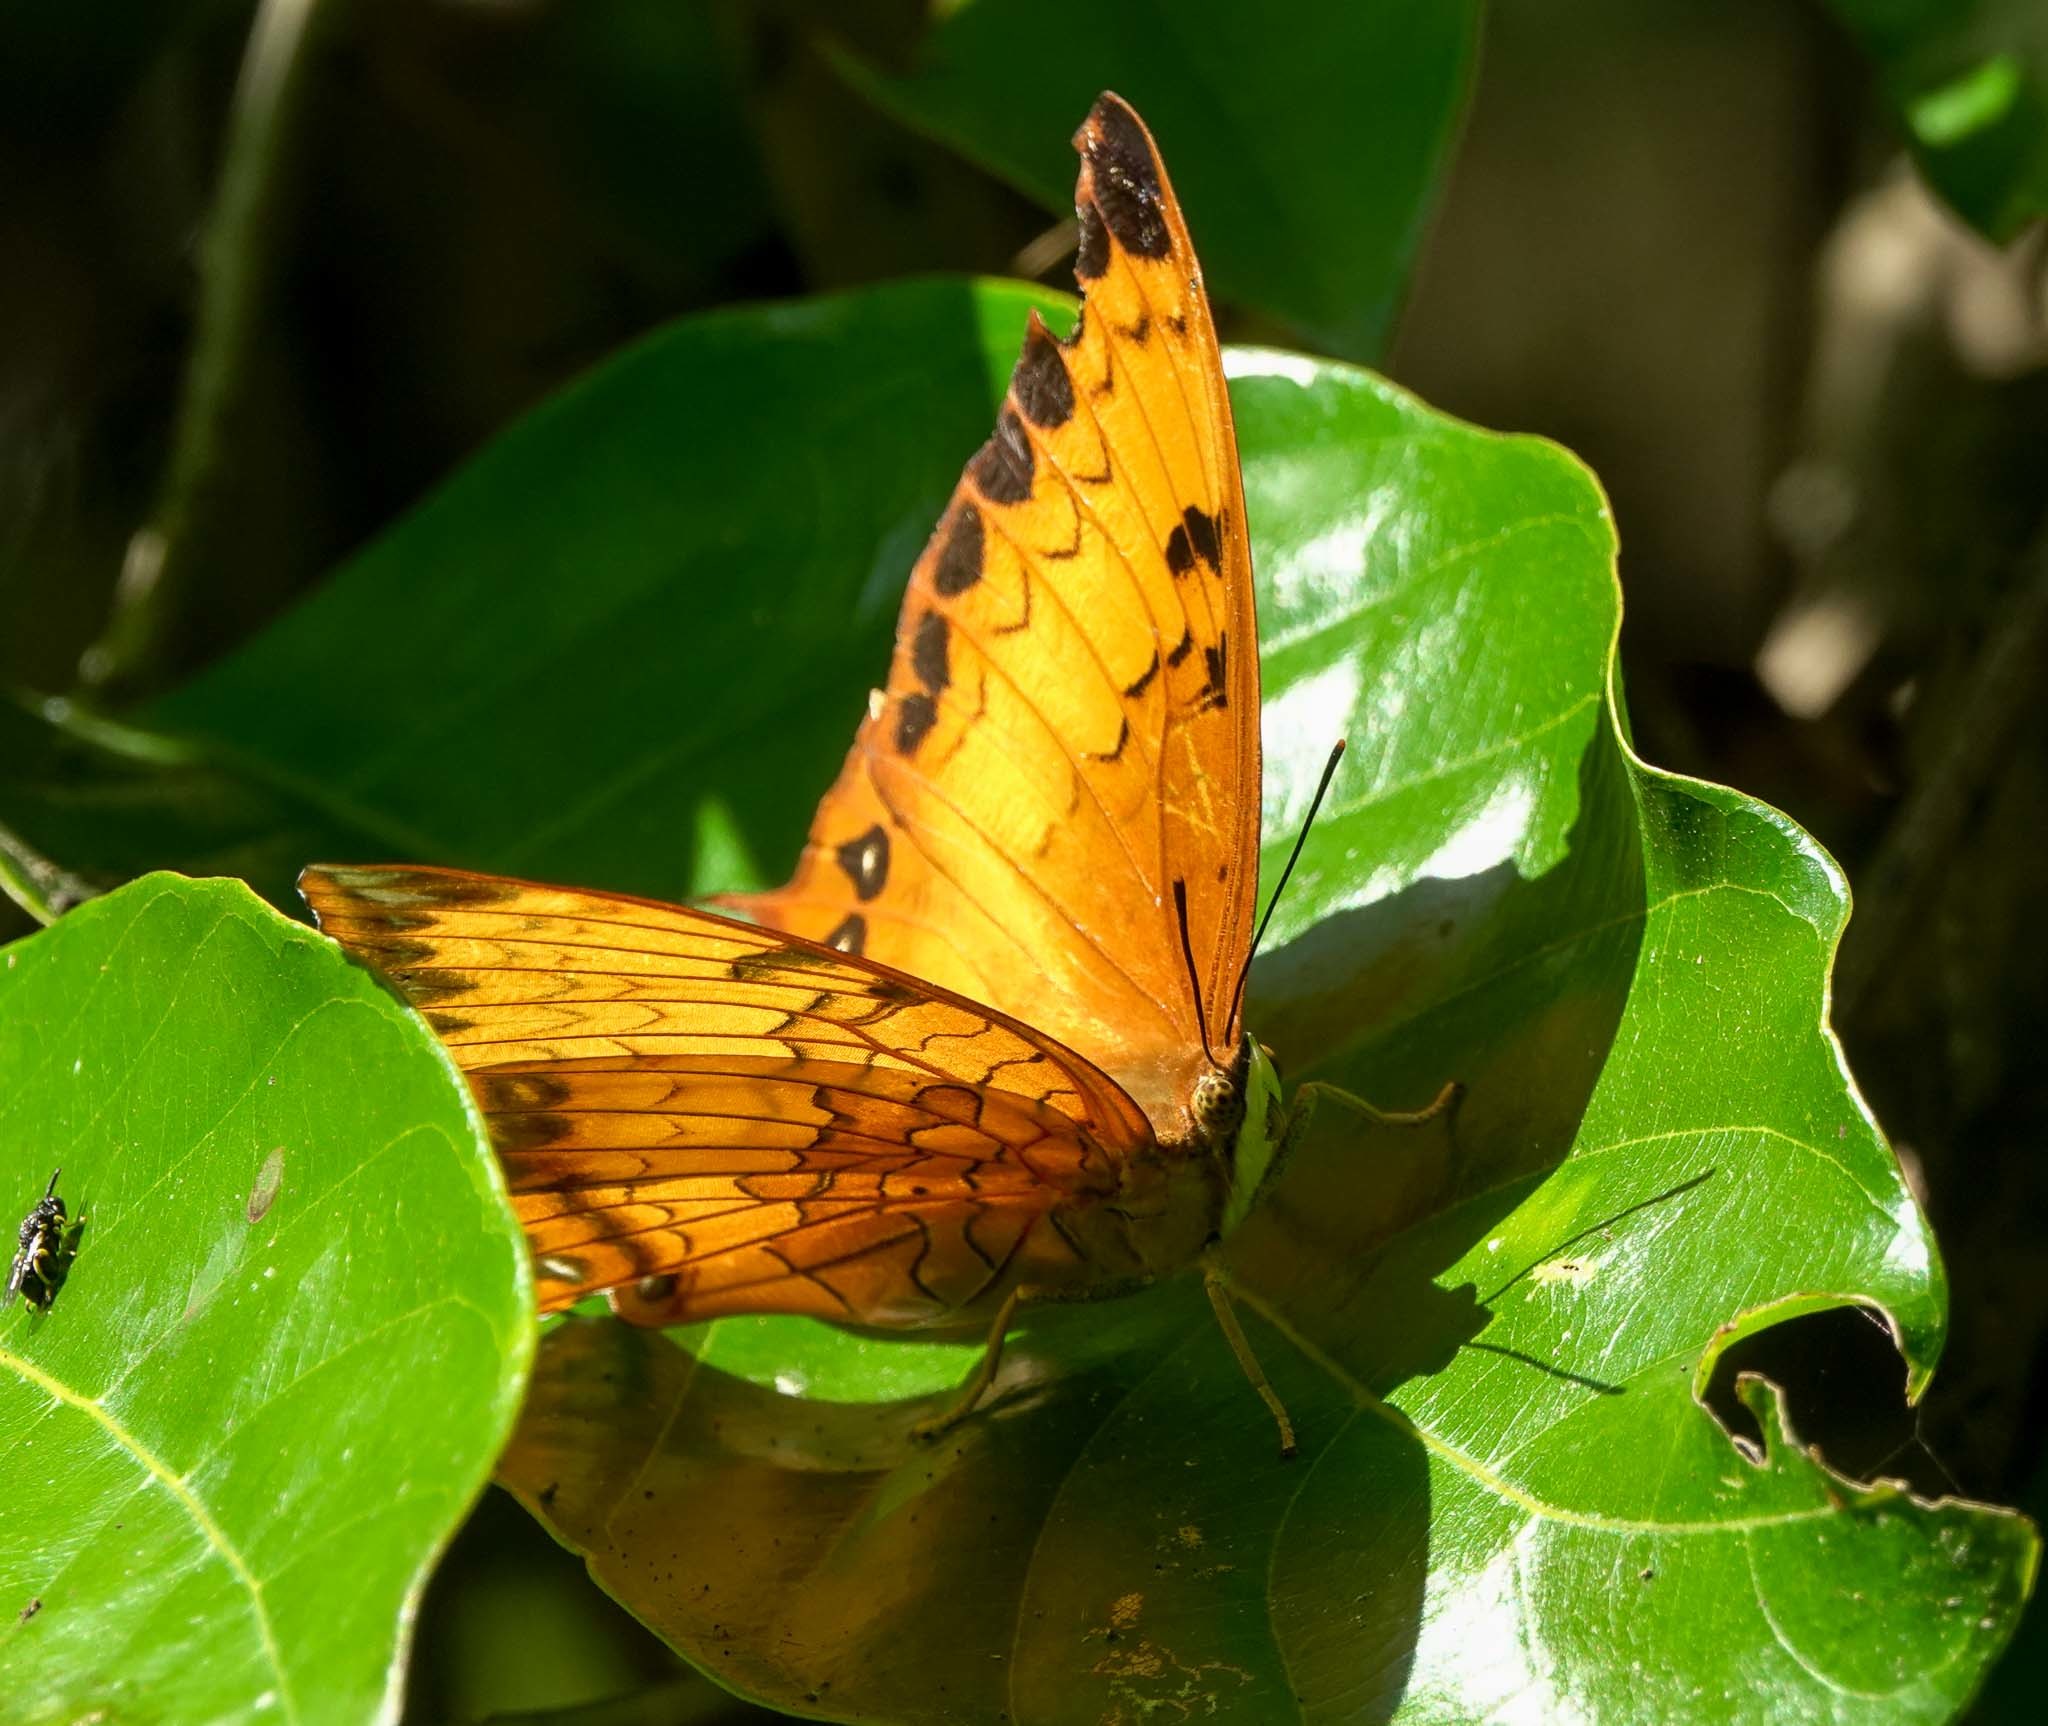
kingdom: Animalia
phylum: Arthropoda
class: Insecta
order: Lepidoptera
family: Nymphalidae
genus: Vindula
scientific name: Vindula erota
